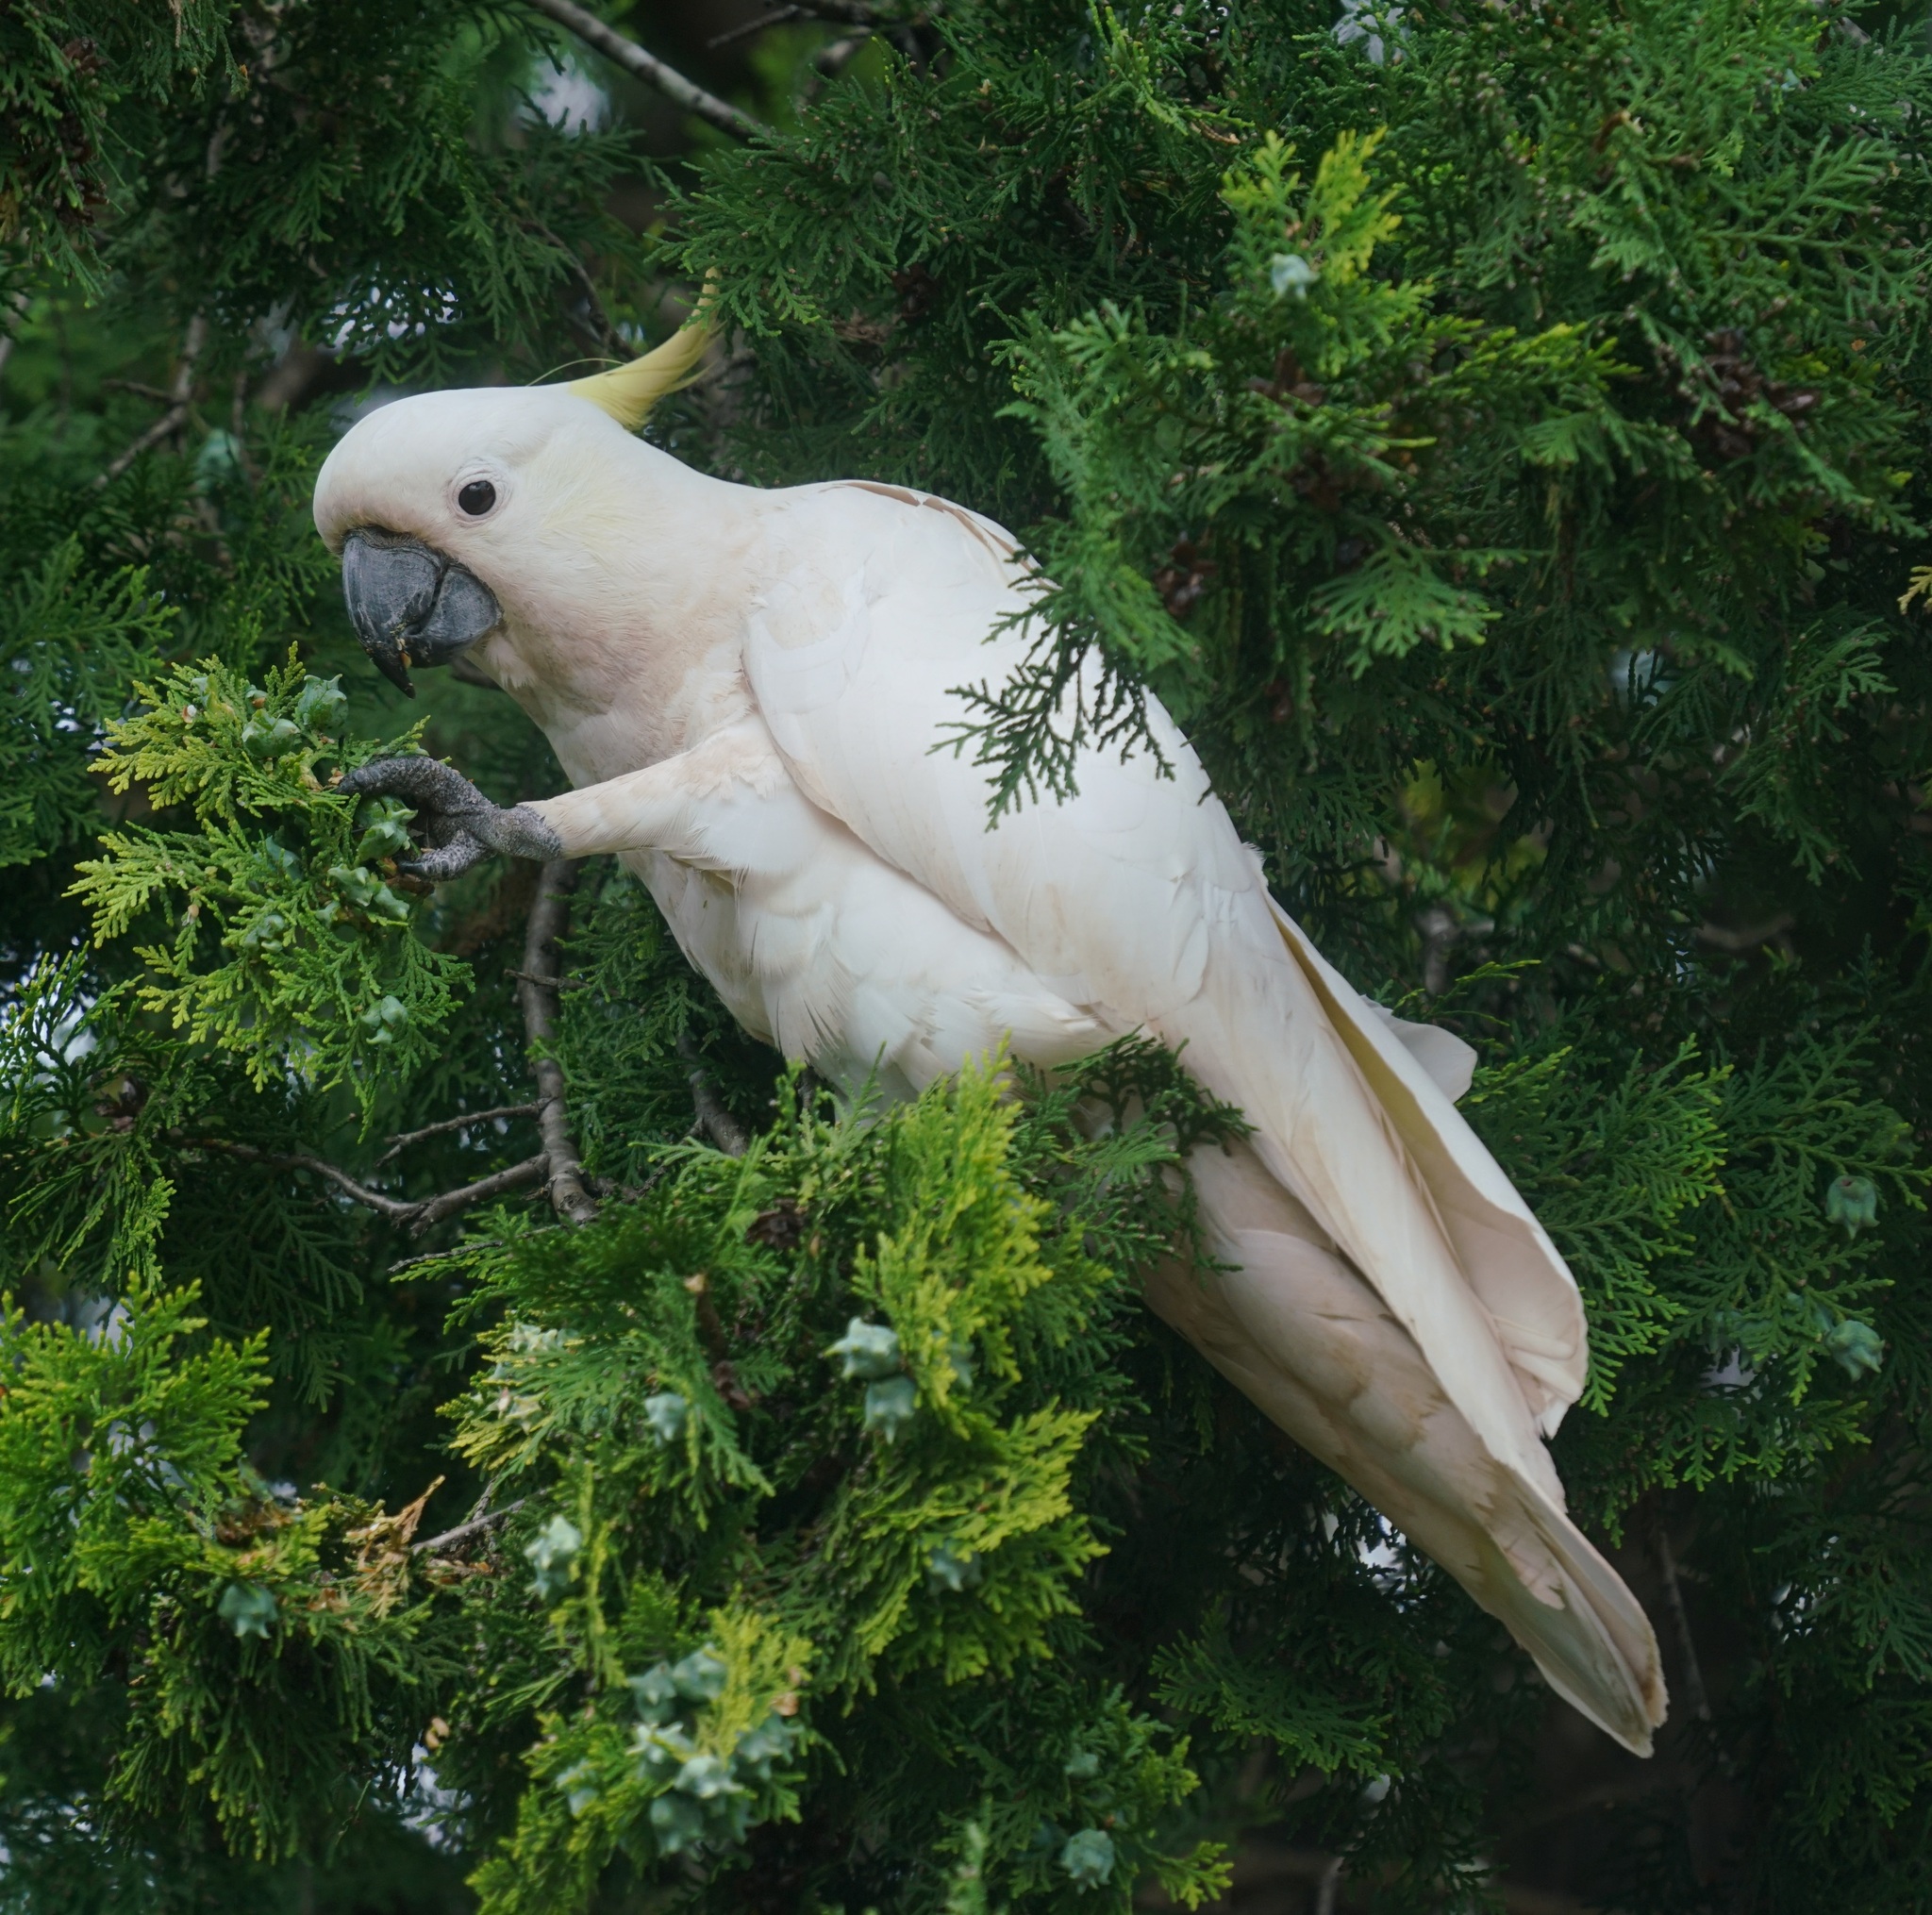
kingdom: Animalia
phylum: Chordata
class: Aves
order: Psittaciformes
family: Psittacidae
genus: Cacatua
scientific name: Cacatua galerita
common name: Sulphur-crested cockatoo
